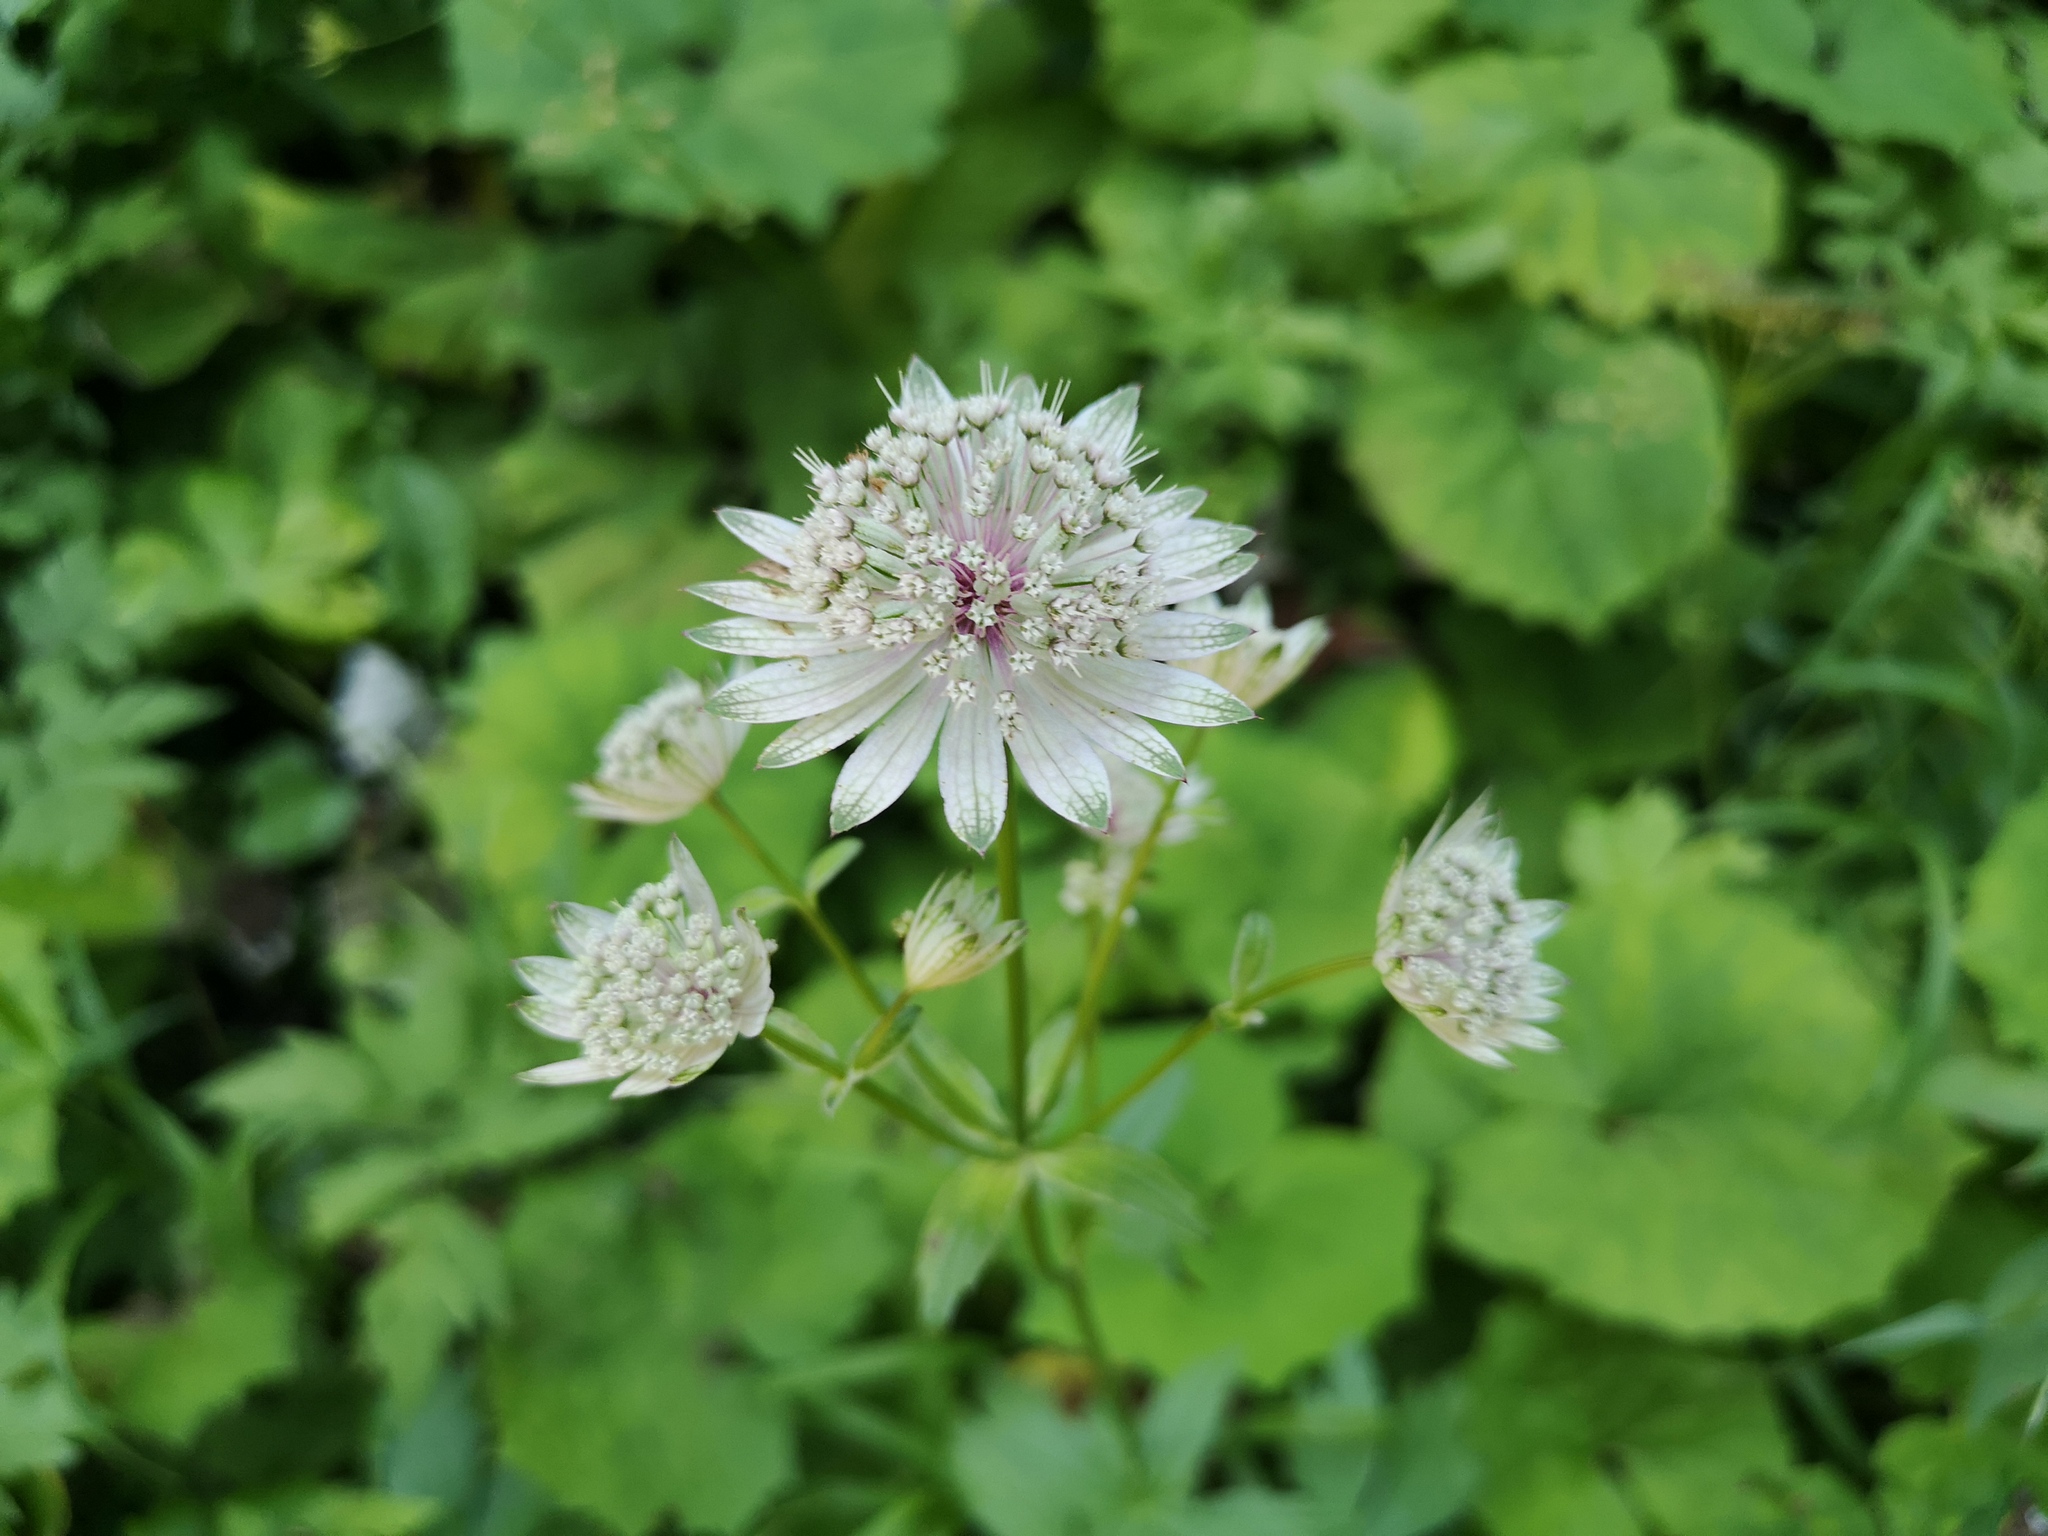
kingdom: Plantae
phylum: Tracheophyta
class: Magnoliopsida
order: Apiales
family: Apiaceae
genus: Astrantia
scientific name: Astrantia major
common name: Greater masterwort
